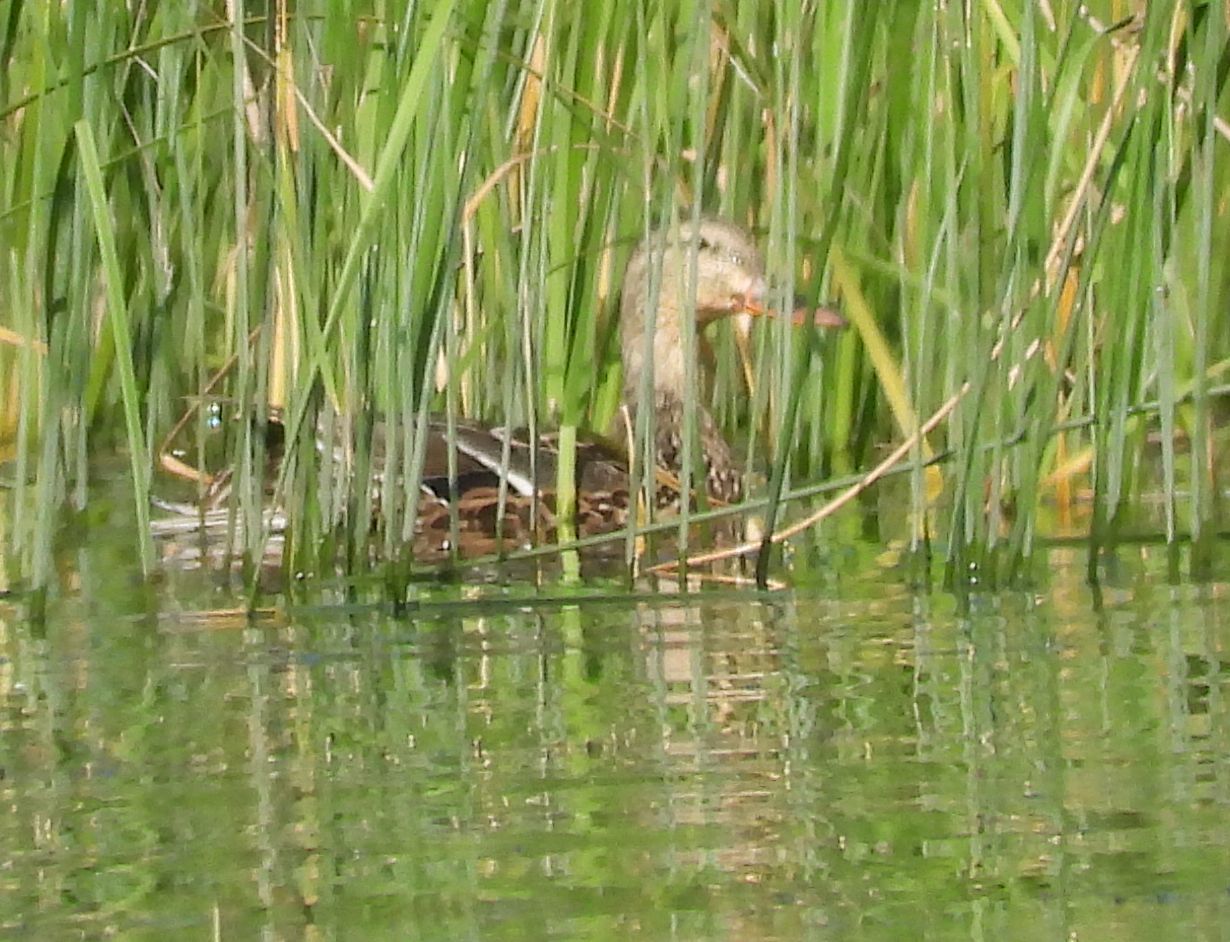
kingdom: Animalia
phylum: Chordata
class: Aves
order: Anseriformes
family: Anatidae
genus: Anas
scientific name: Anas platyrhynchos
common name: Mallard
